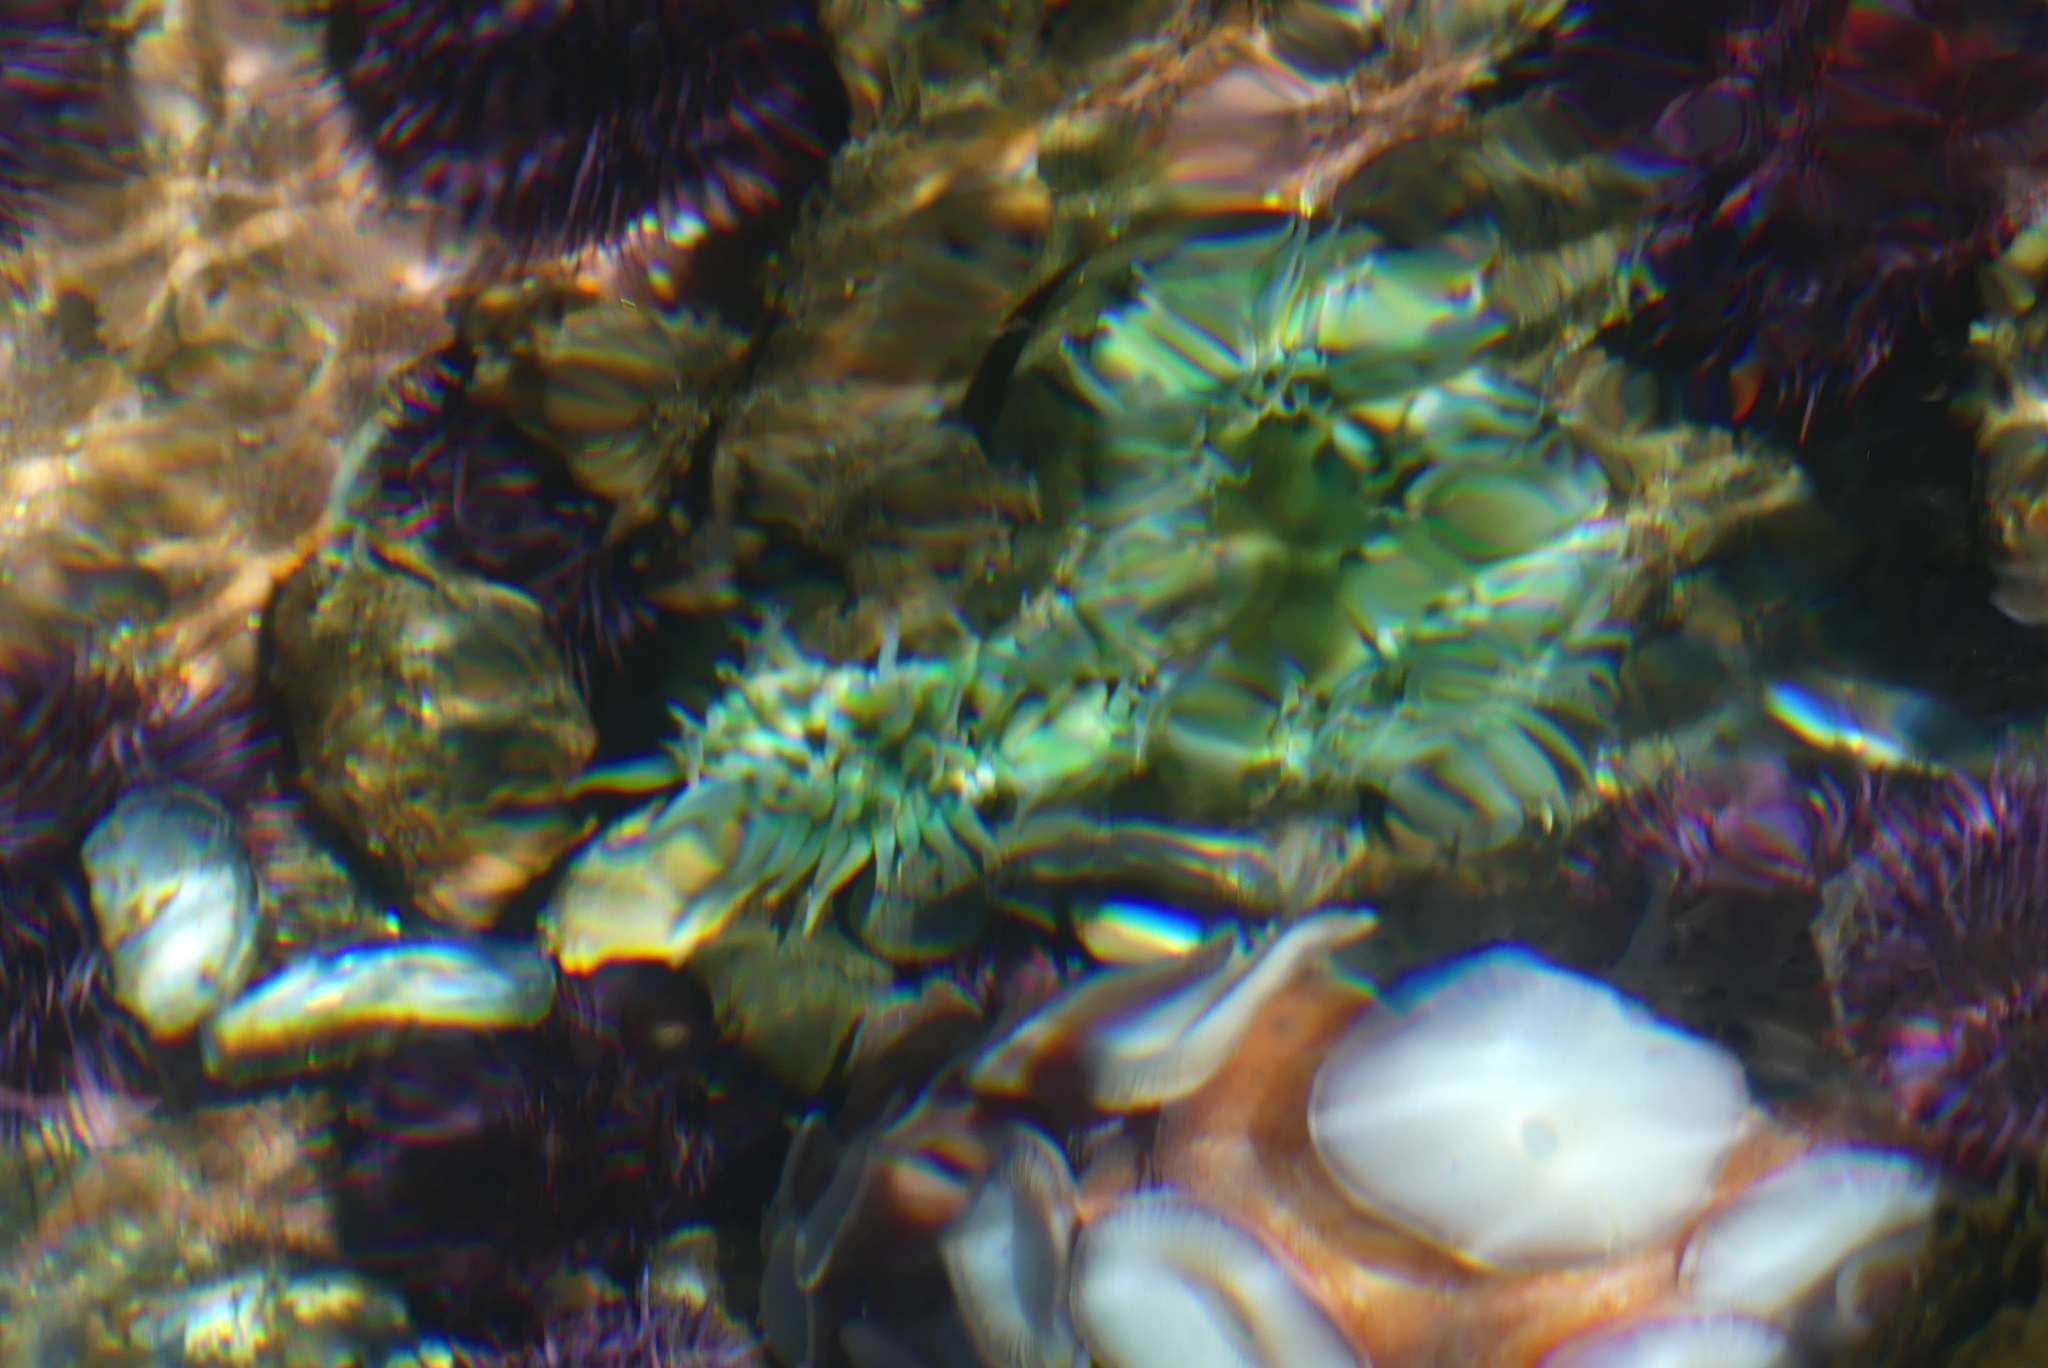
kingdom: Animalia
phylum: Cnidaria
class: Anthozoa
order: Actiniaria
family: Actiniidae
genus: Anthopleura
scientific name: Anthopleura xanthogrammica
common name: Giant green anemone
